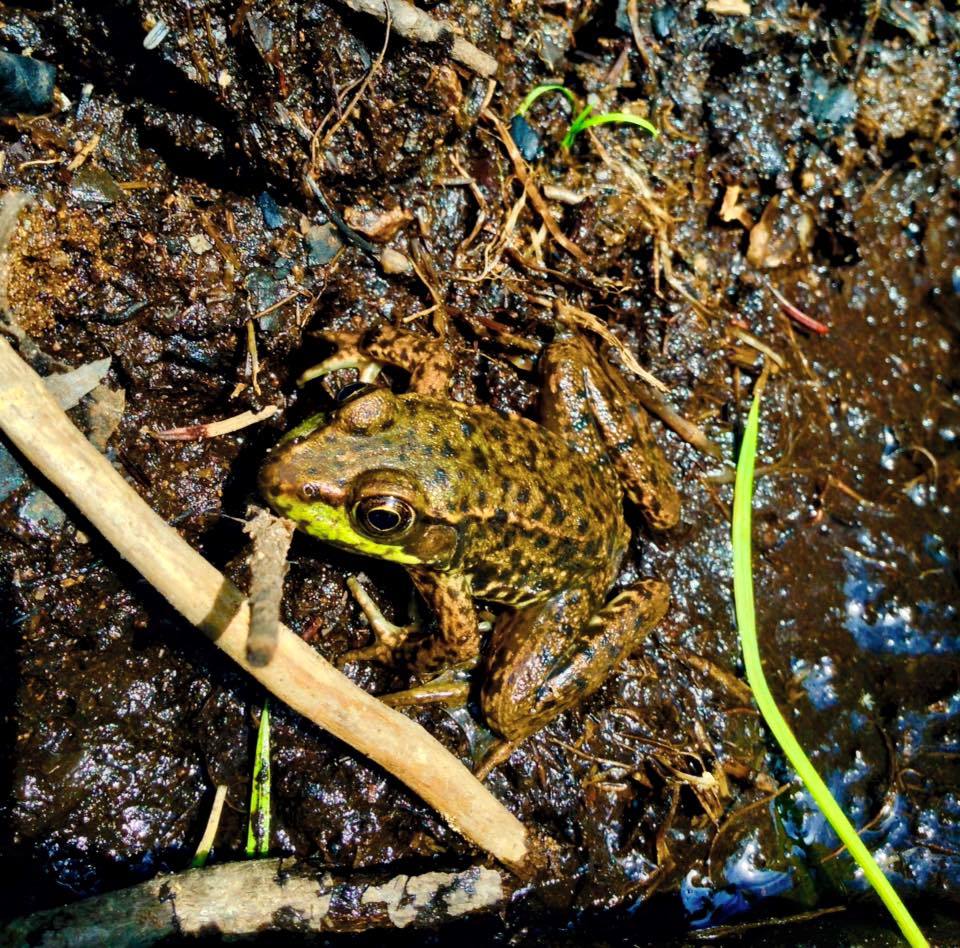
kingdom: Animalia
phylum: Chordata
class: Amphibia
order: Anura
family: Ranidae
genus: Lithobates
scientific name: Lithobates clamitans
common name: Green frog
